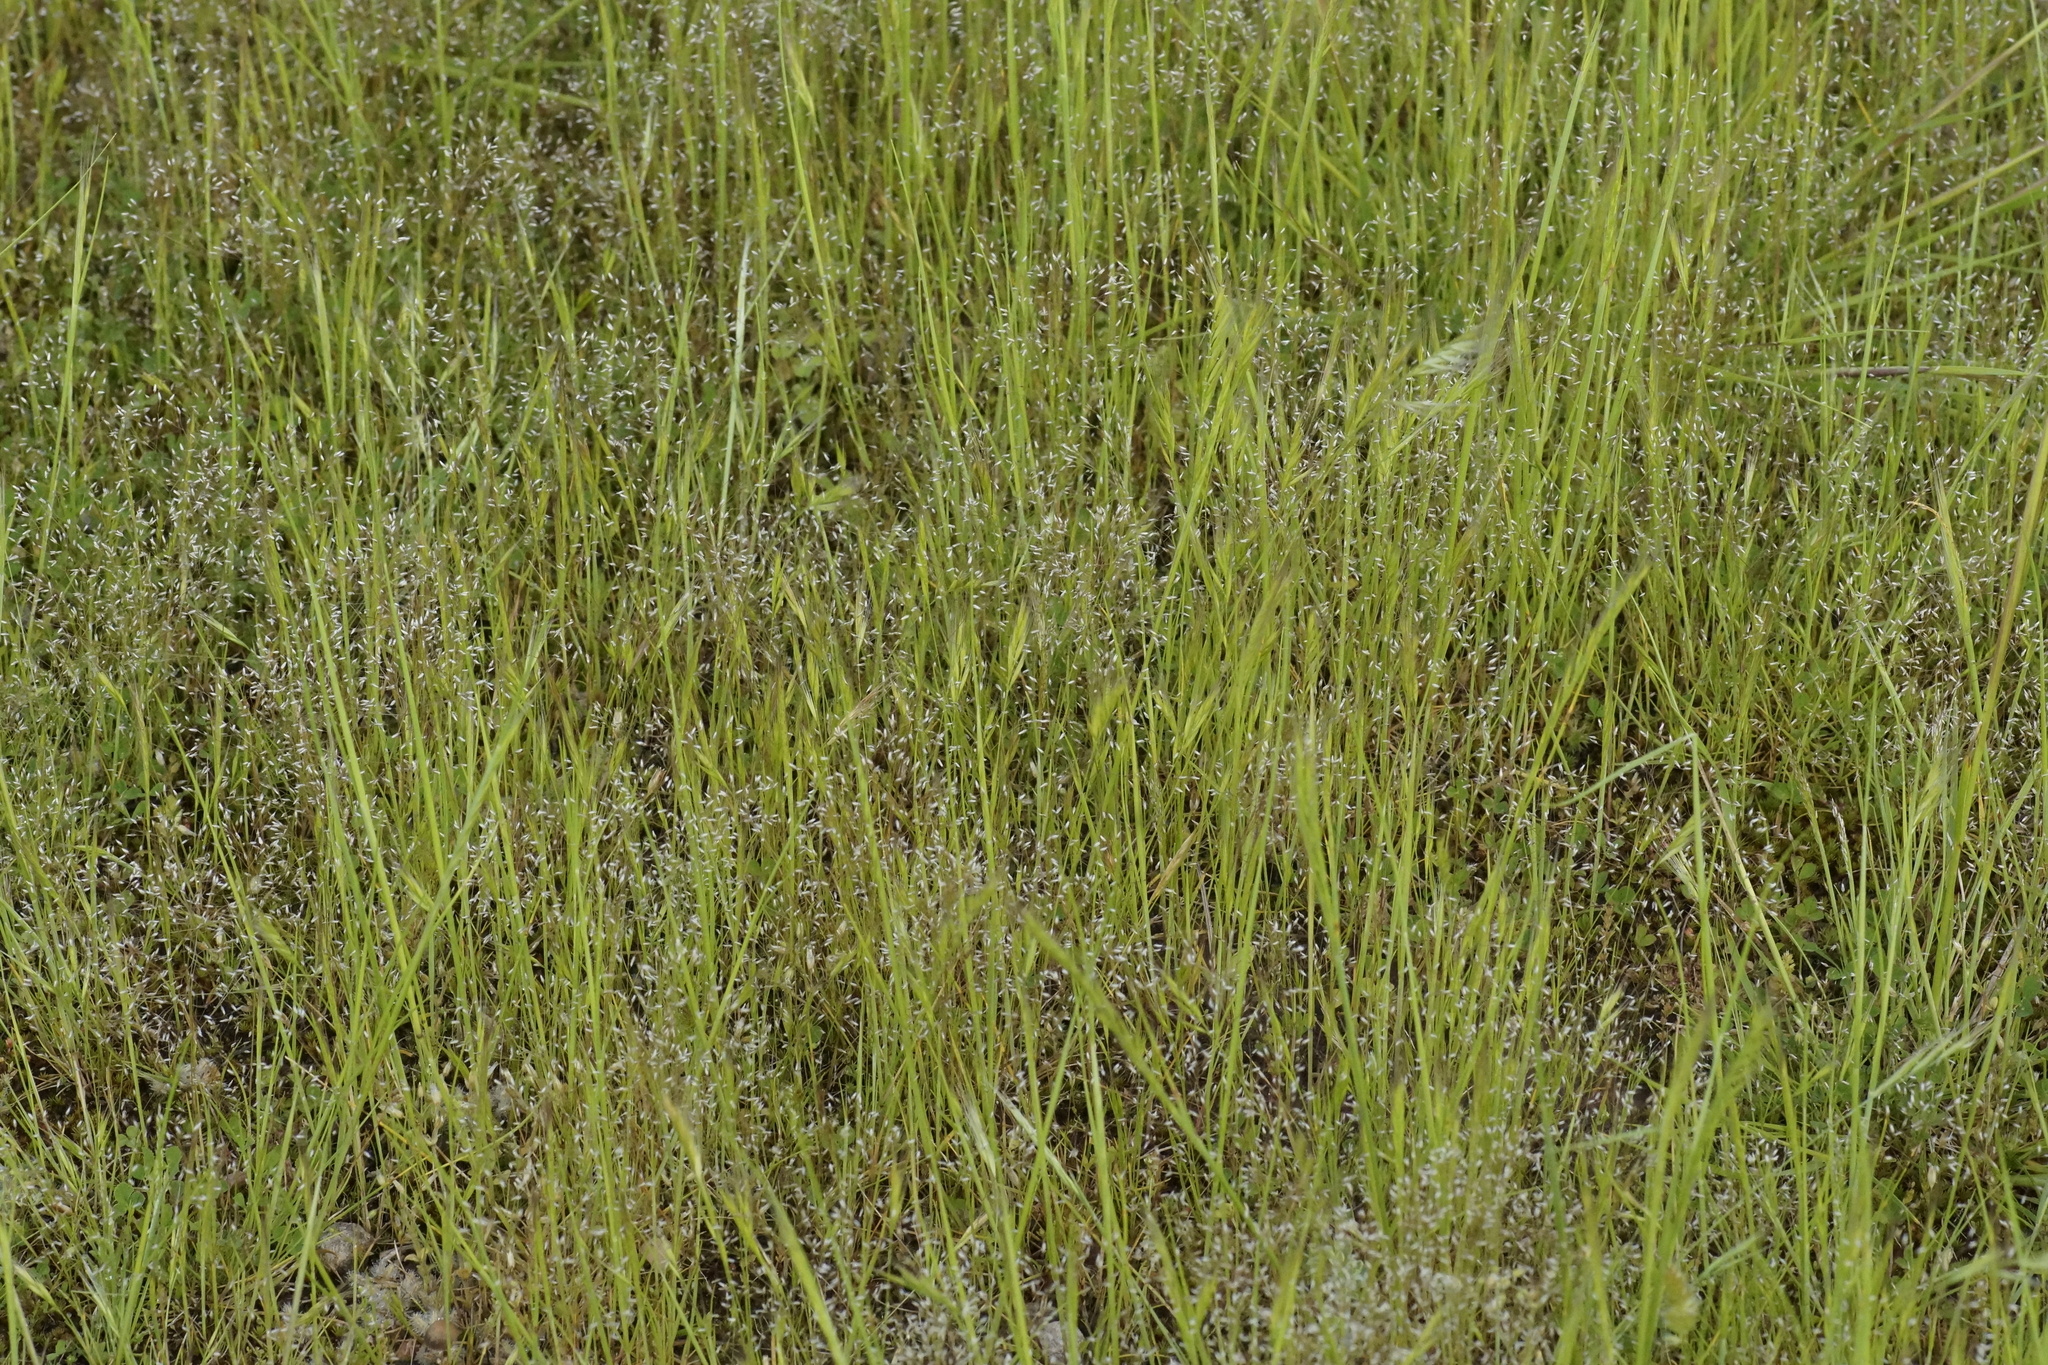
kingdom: Plantae
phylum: Tracheophyta
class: Liliopsida
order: Poales
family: Poaceae
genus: Aira
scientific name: Aira elegans
